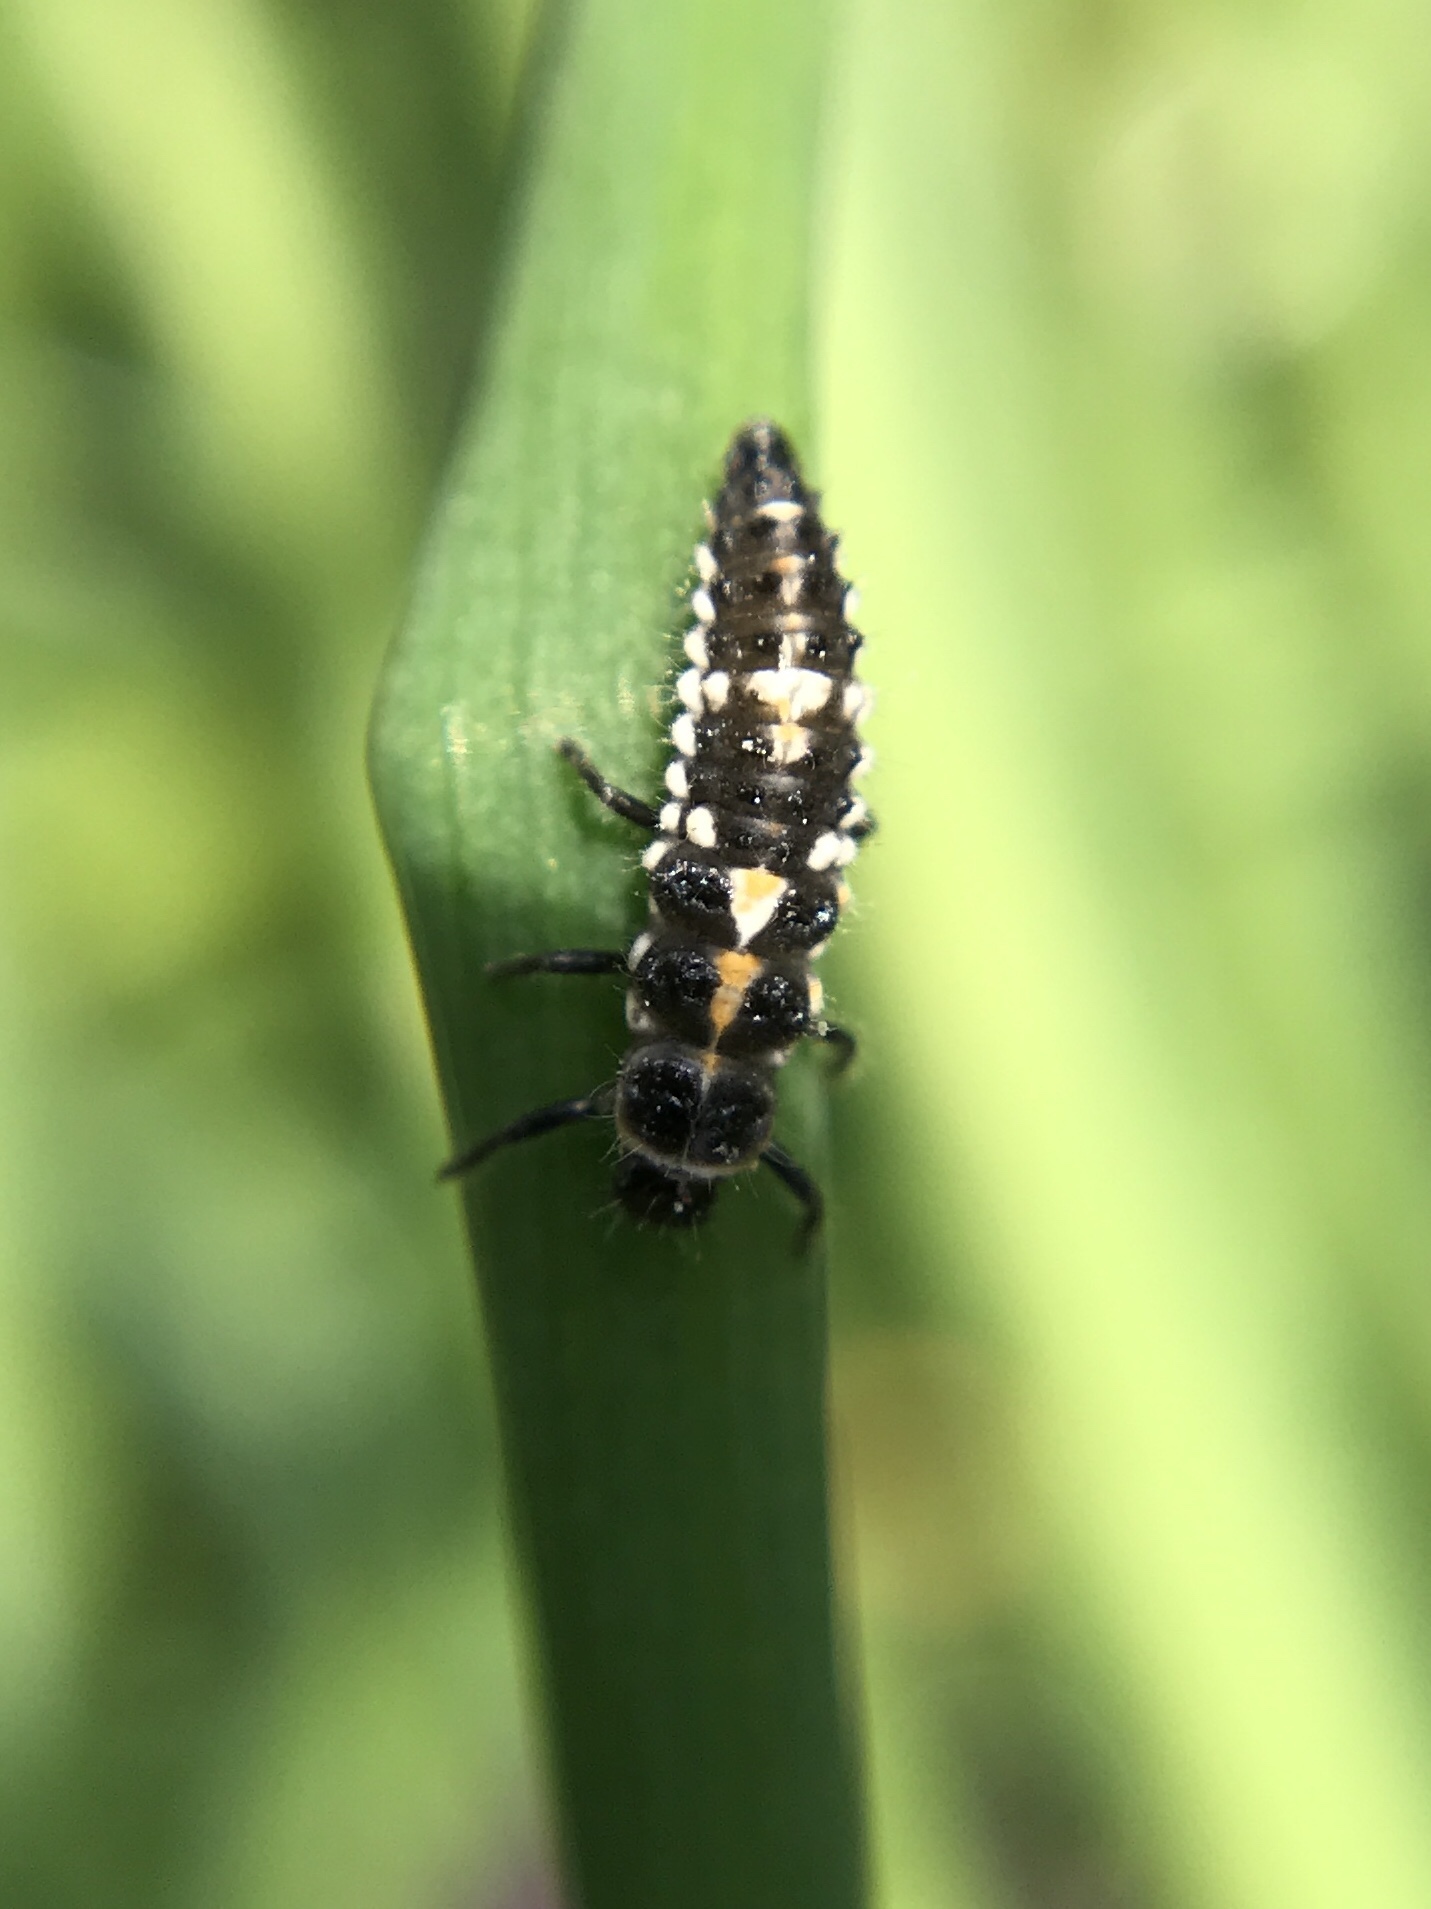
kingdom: Animalia
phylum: Arthropoda
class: Insecta
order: Coleoptera
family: Coccinellidae
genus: Oenopia
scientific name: Oenopia conglobata
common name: Ladybird beetle
